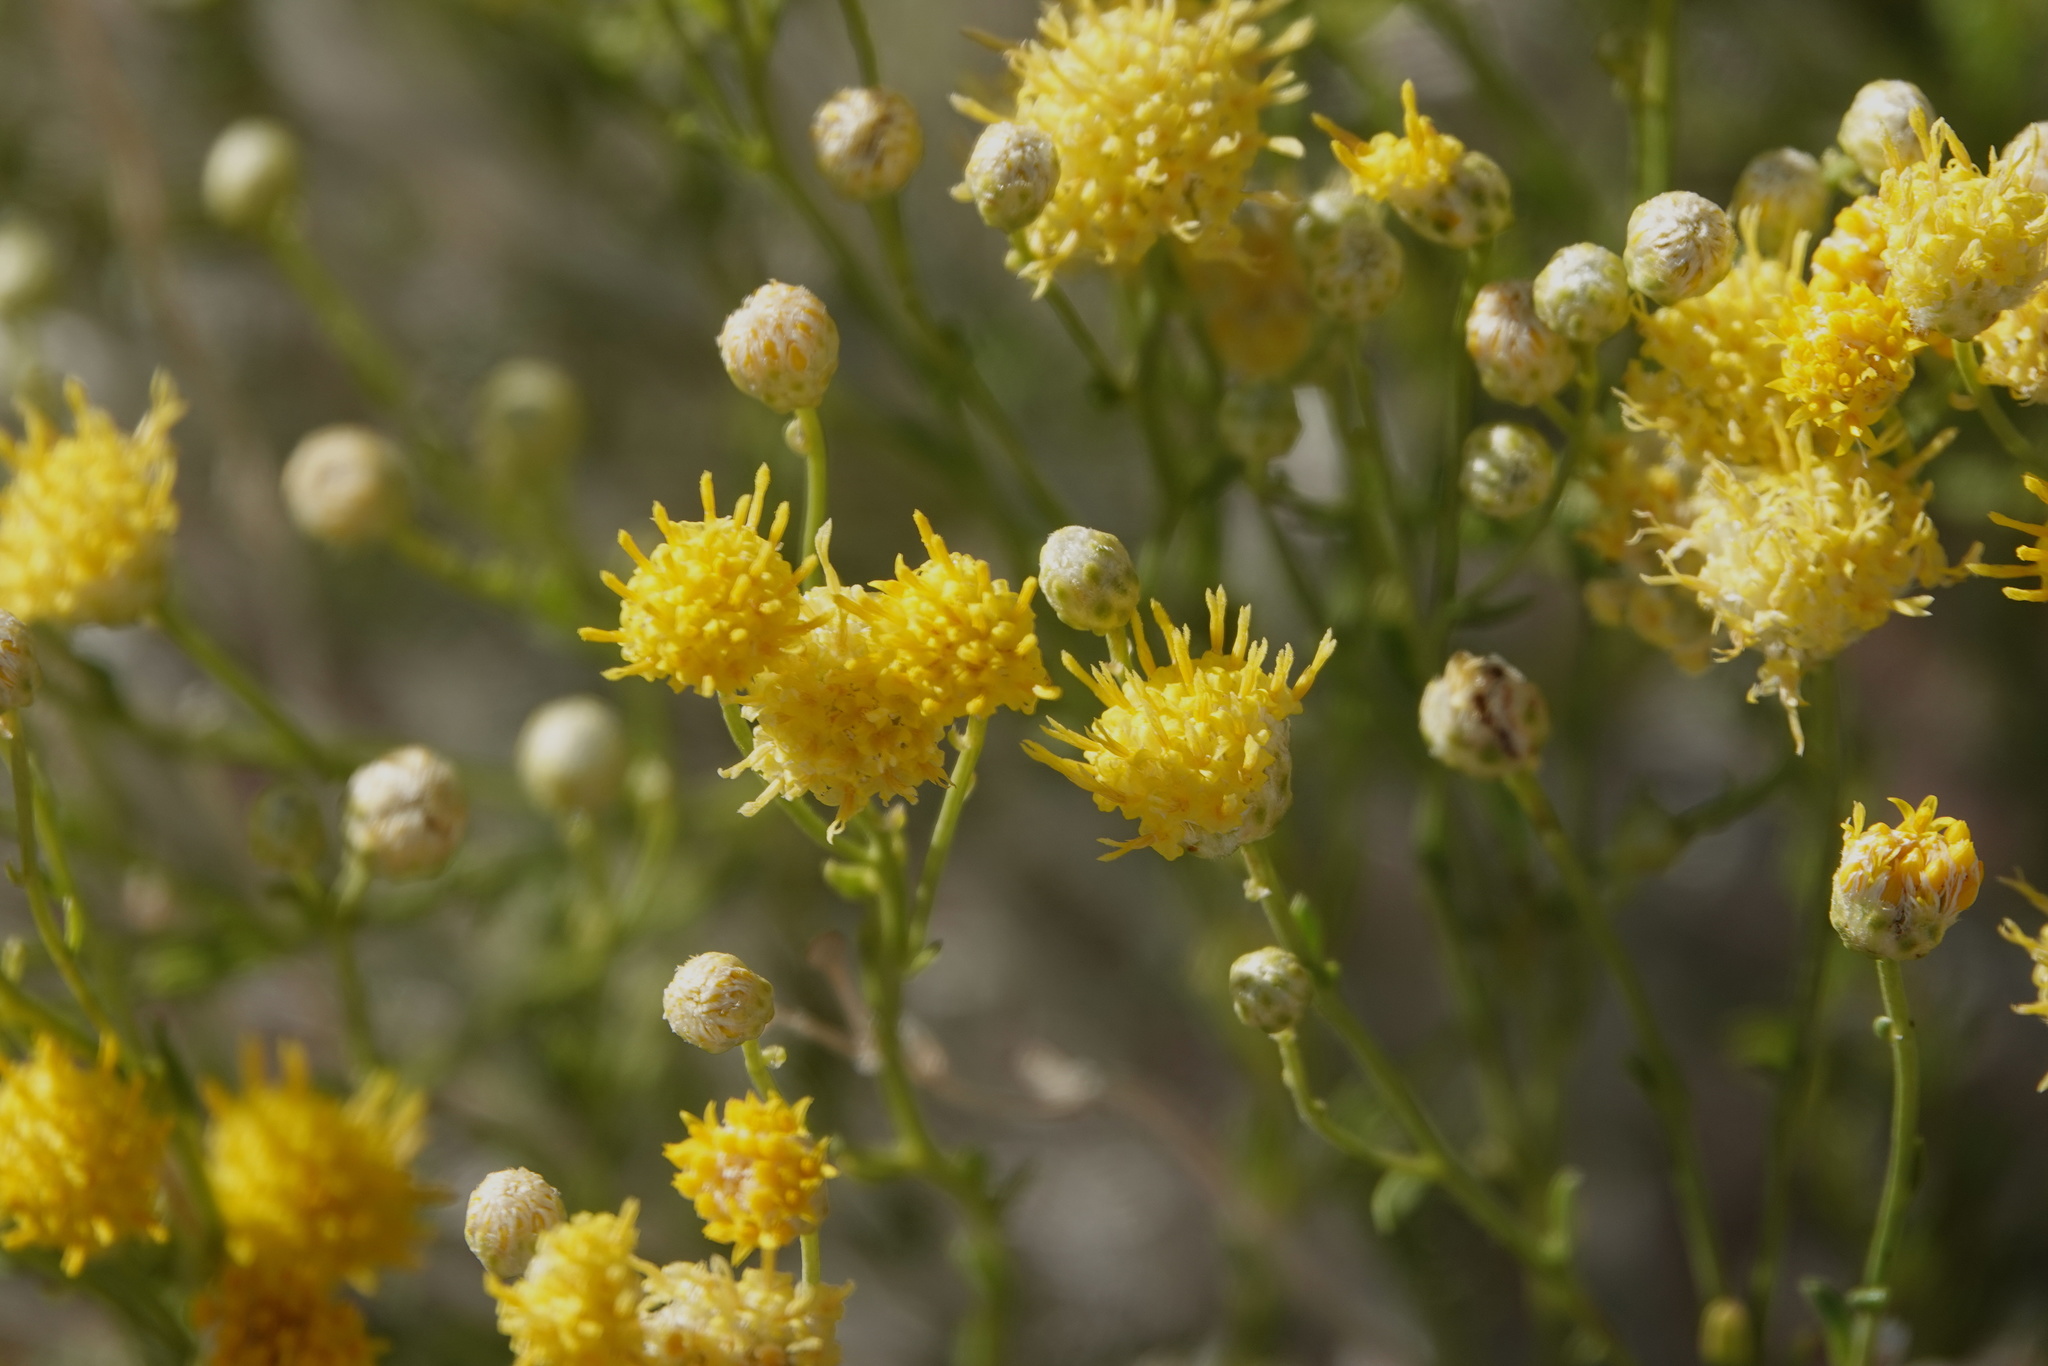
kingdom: Plantae
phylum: Tracheophyta
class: Magnoliopsida
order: Asterales
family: Asteraceae
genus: Acamptopappus
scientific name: Acamptopappus sphaerocephalus
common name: Goldenhead
